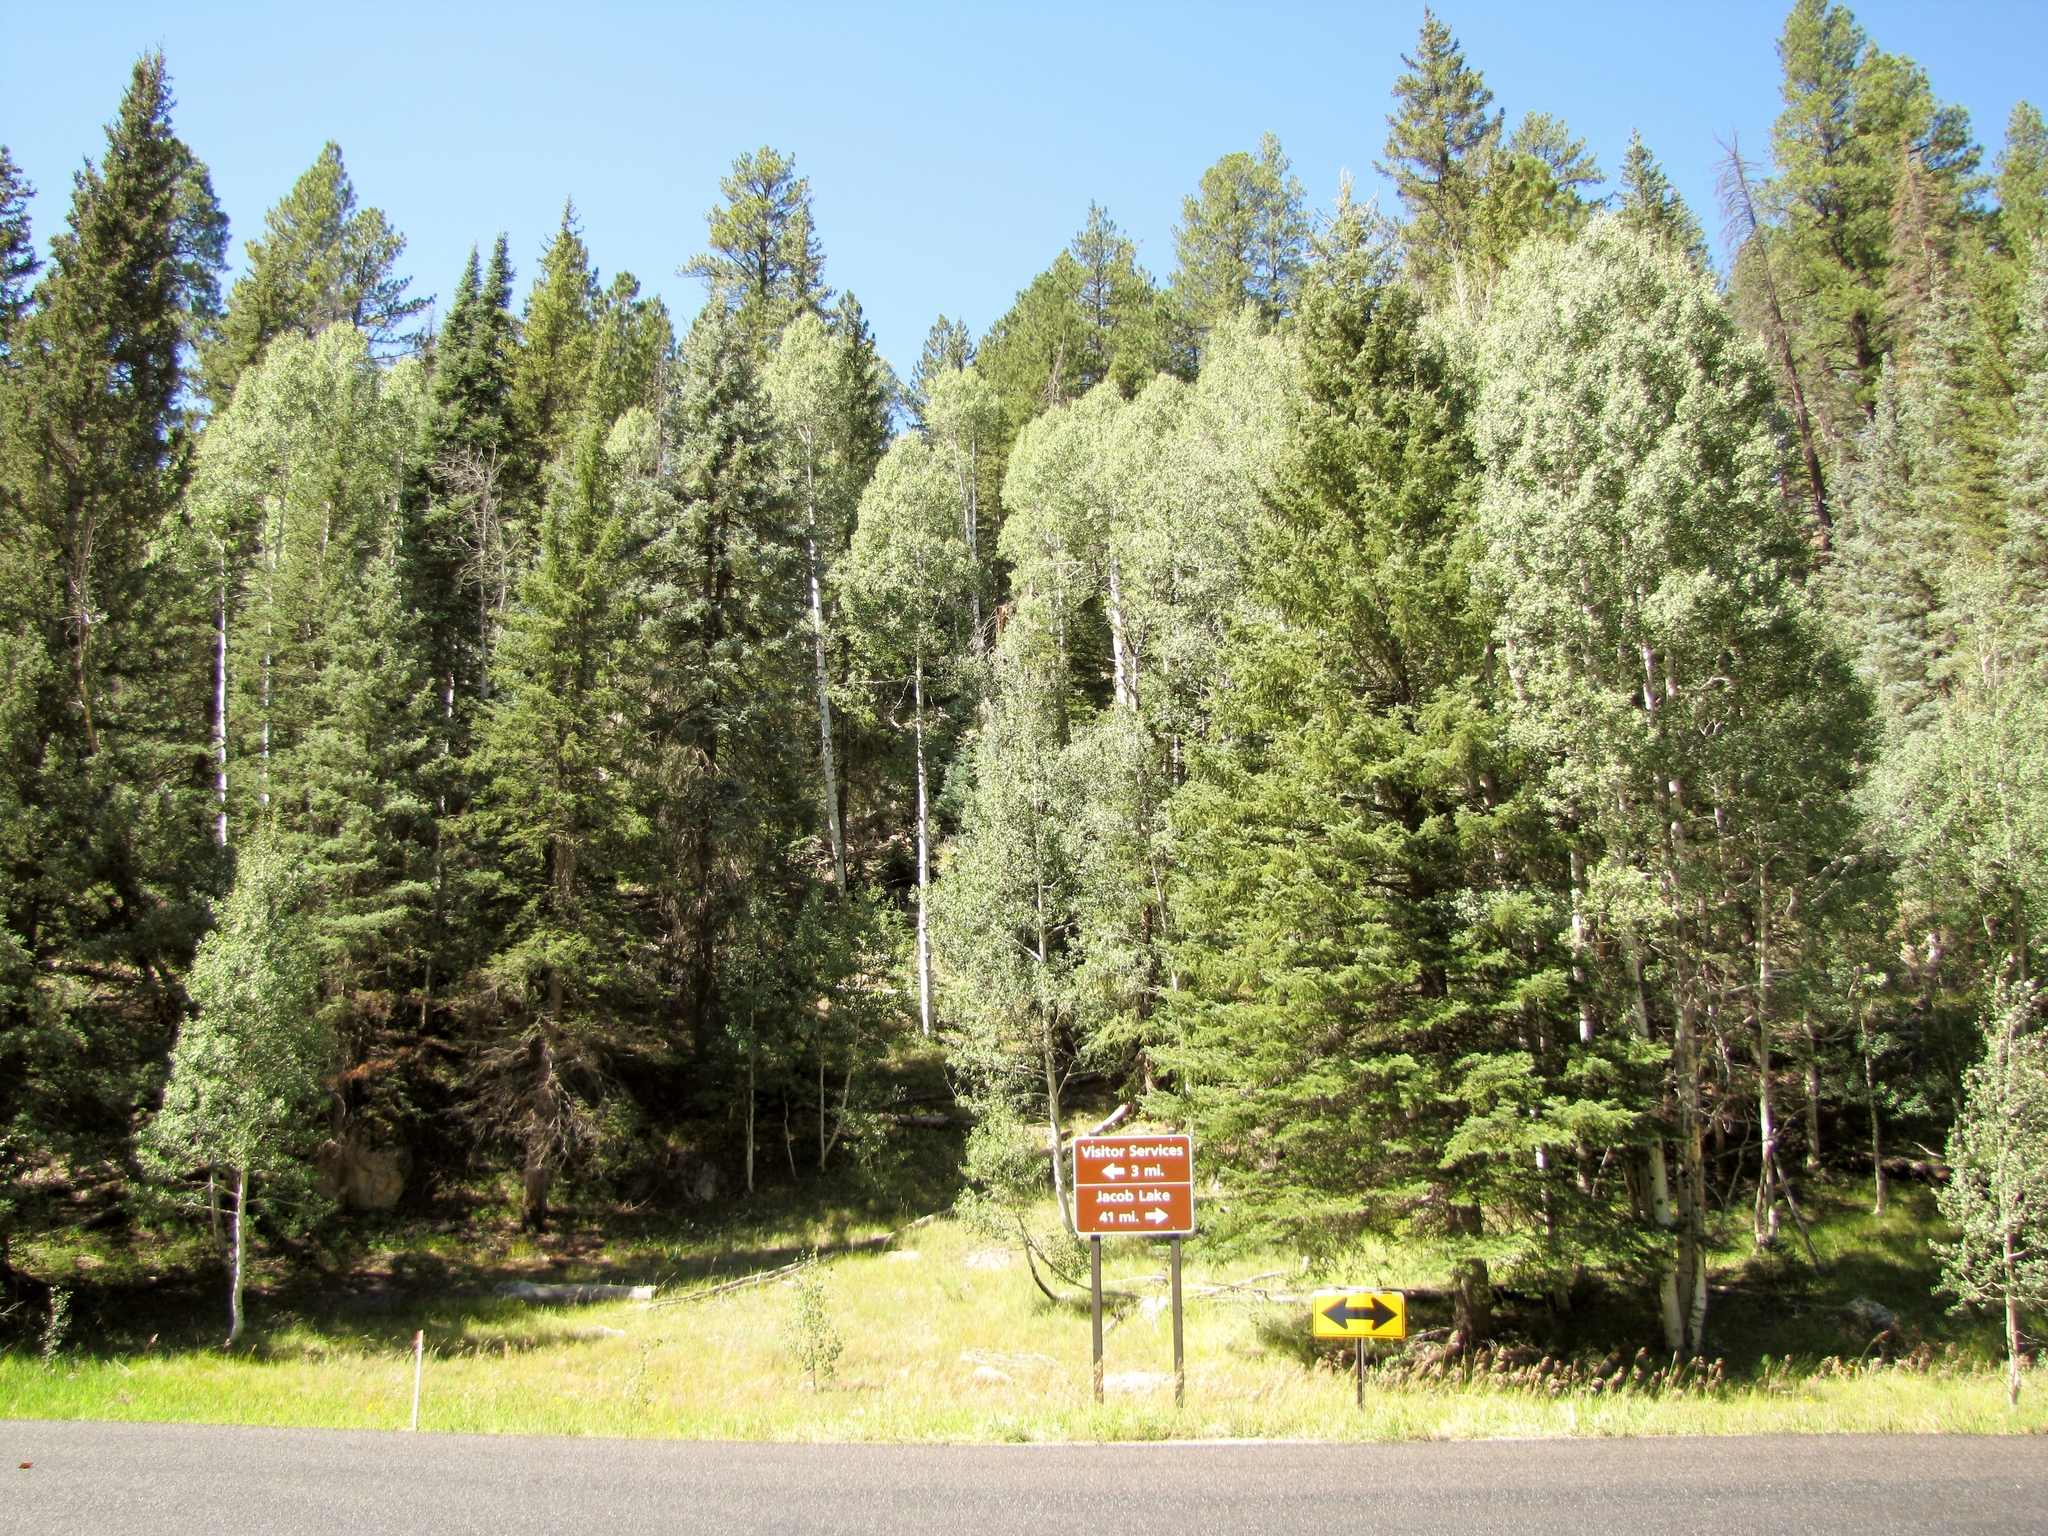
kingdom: Plantae
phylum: Tracheophyta
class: Magnoliopsida
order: Malpighiales
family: Salicaceae
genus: Populus
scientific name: Populus tremuloides
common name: Quaking aspen
